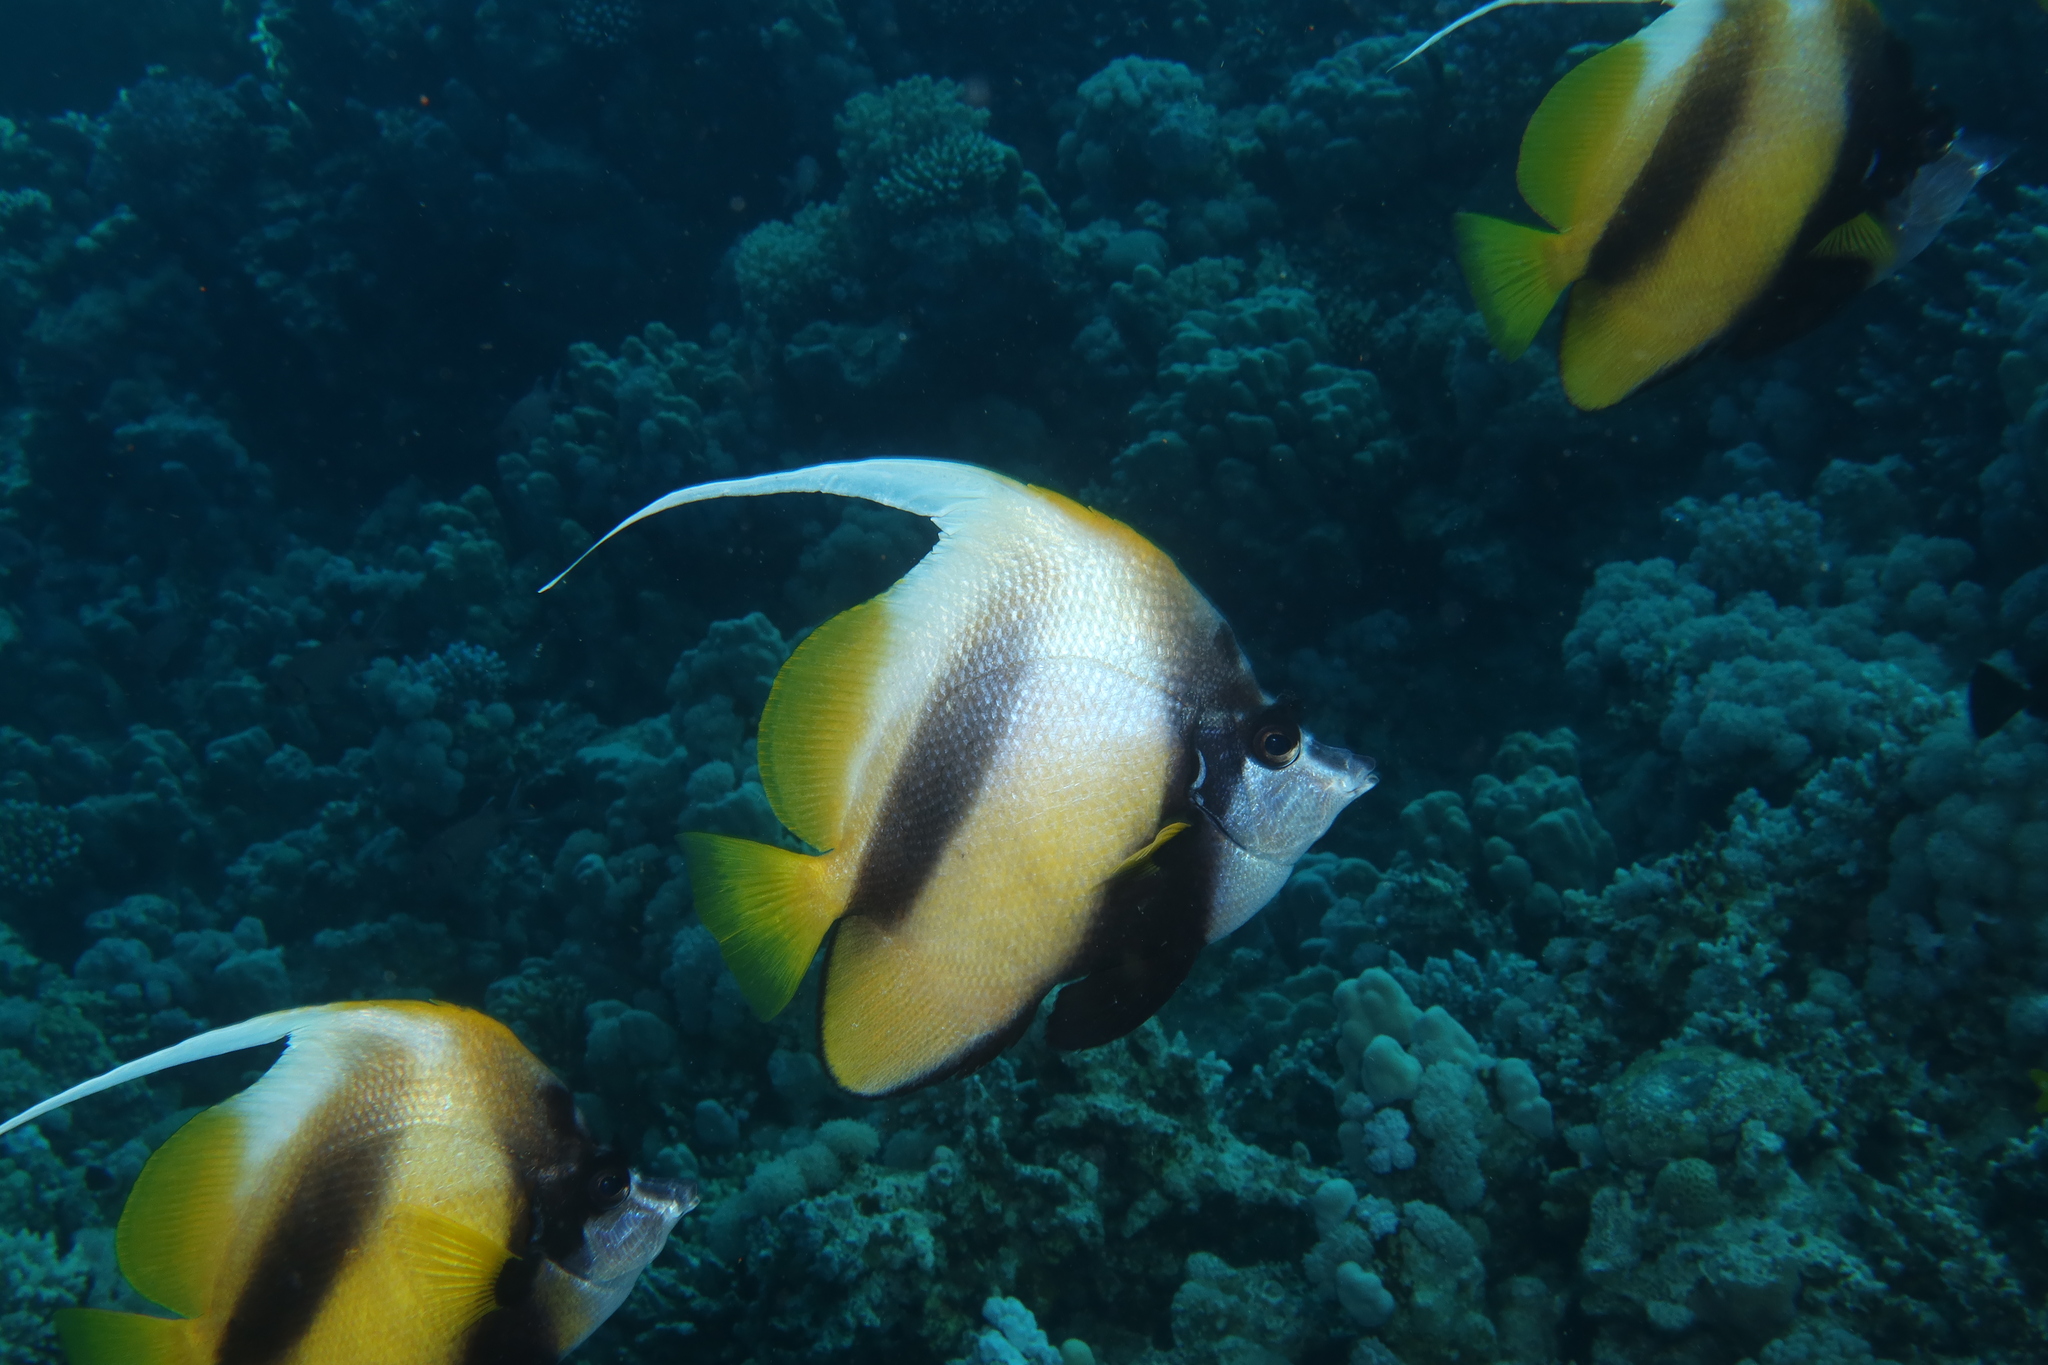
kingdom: Animalia
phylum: Chordata
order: Perciformes
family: Chaetodontidae
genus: Heniochus
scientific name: Heniochus intermedius
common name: Red sea bannerfish
